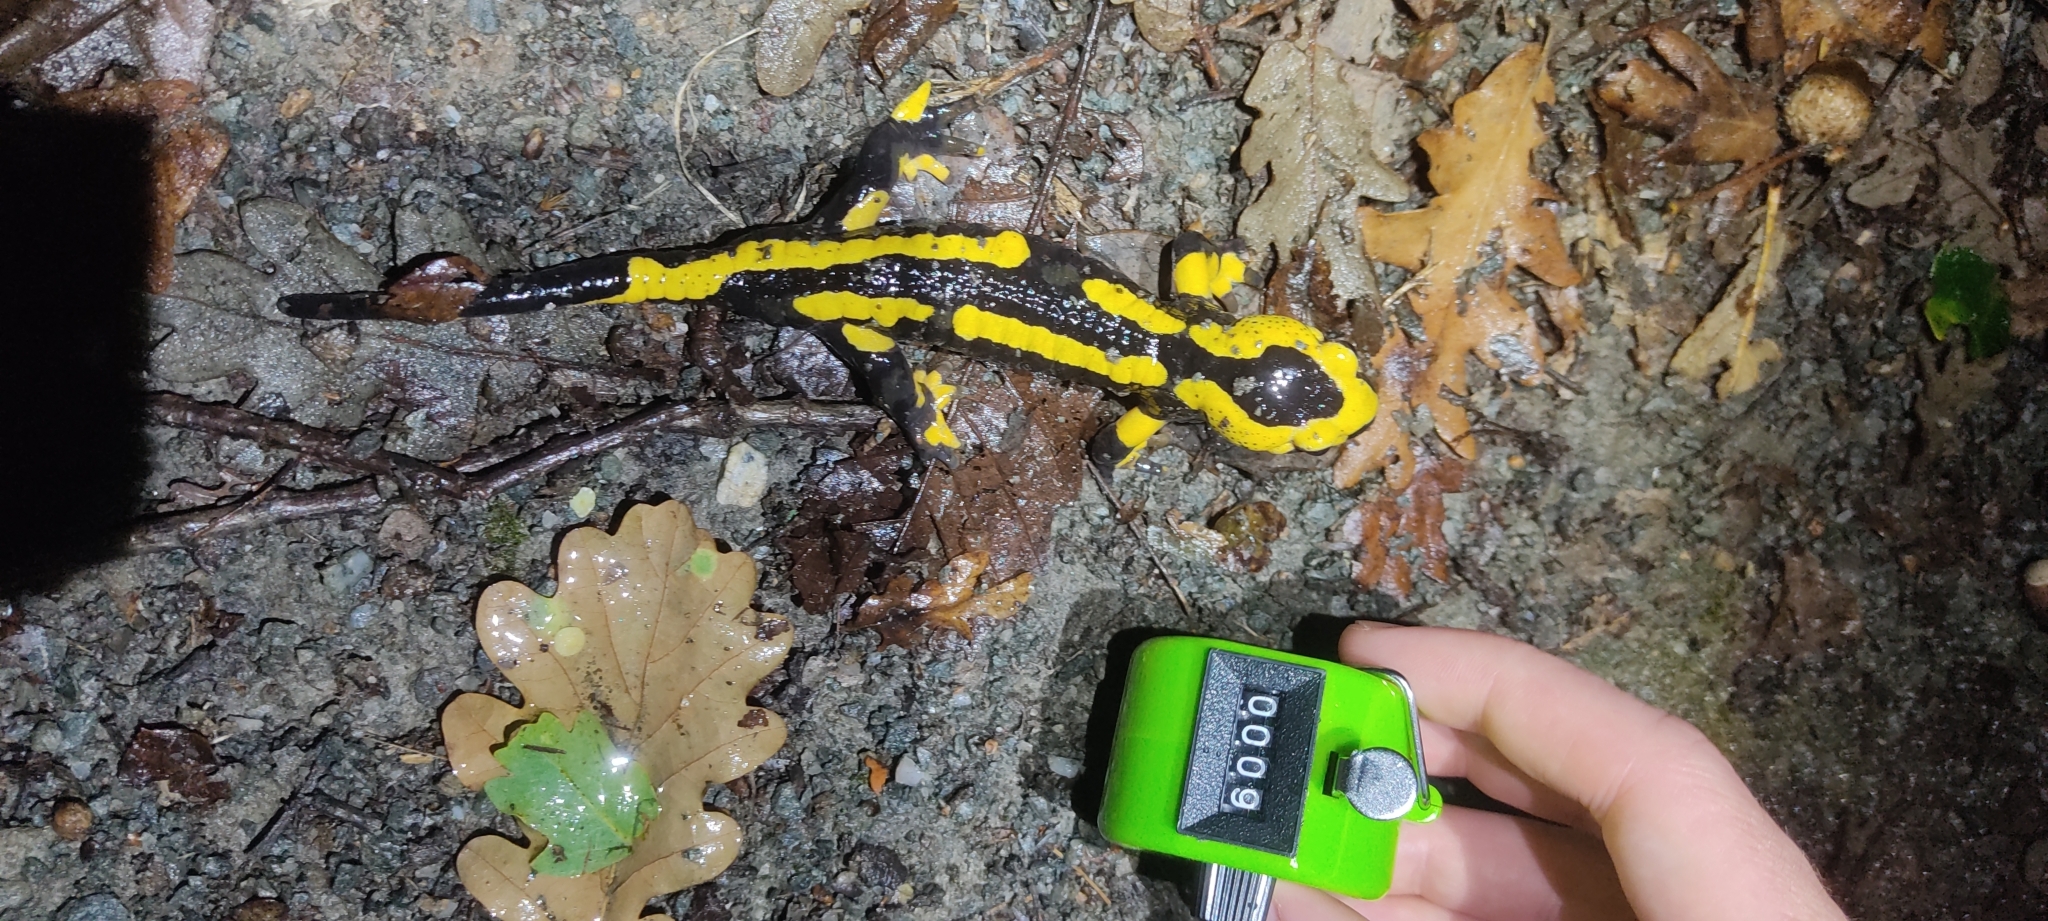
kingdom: Animalia
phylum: Chordata
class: Amphibia
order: Caudata
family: Salamandridae
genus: Salamandra
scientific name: Salamandra salamandra
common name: Fire salamander
